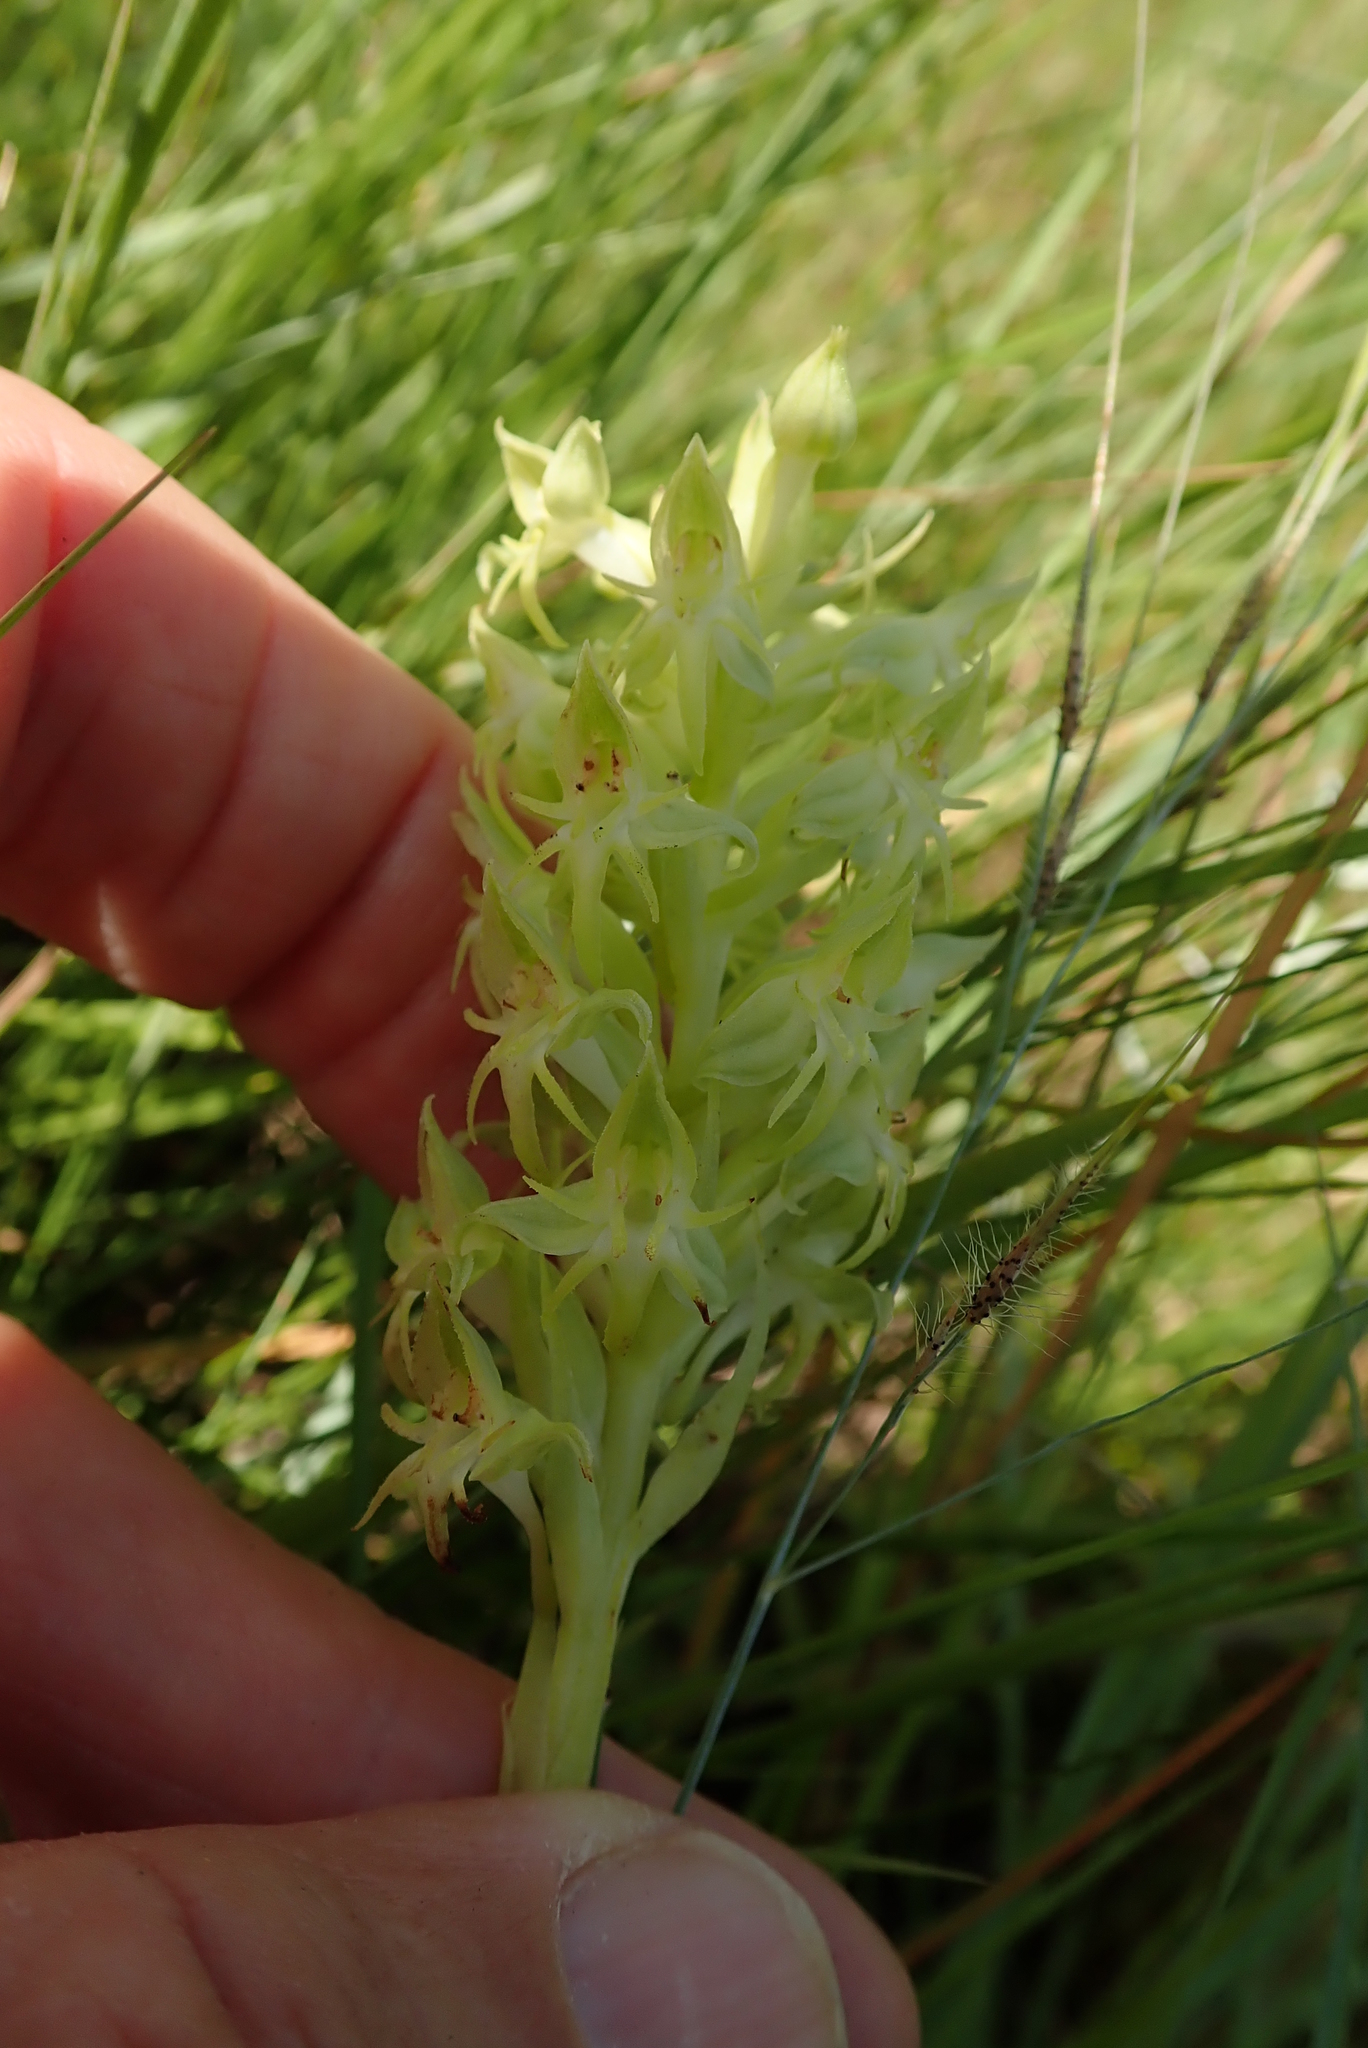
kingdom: Plantae
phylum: Tracheophyta
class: Liliopsida
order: Asparagales
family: Orchidaceae
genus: Habenaria
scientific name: Habenaria dregeana
